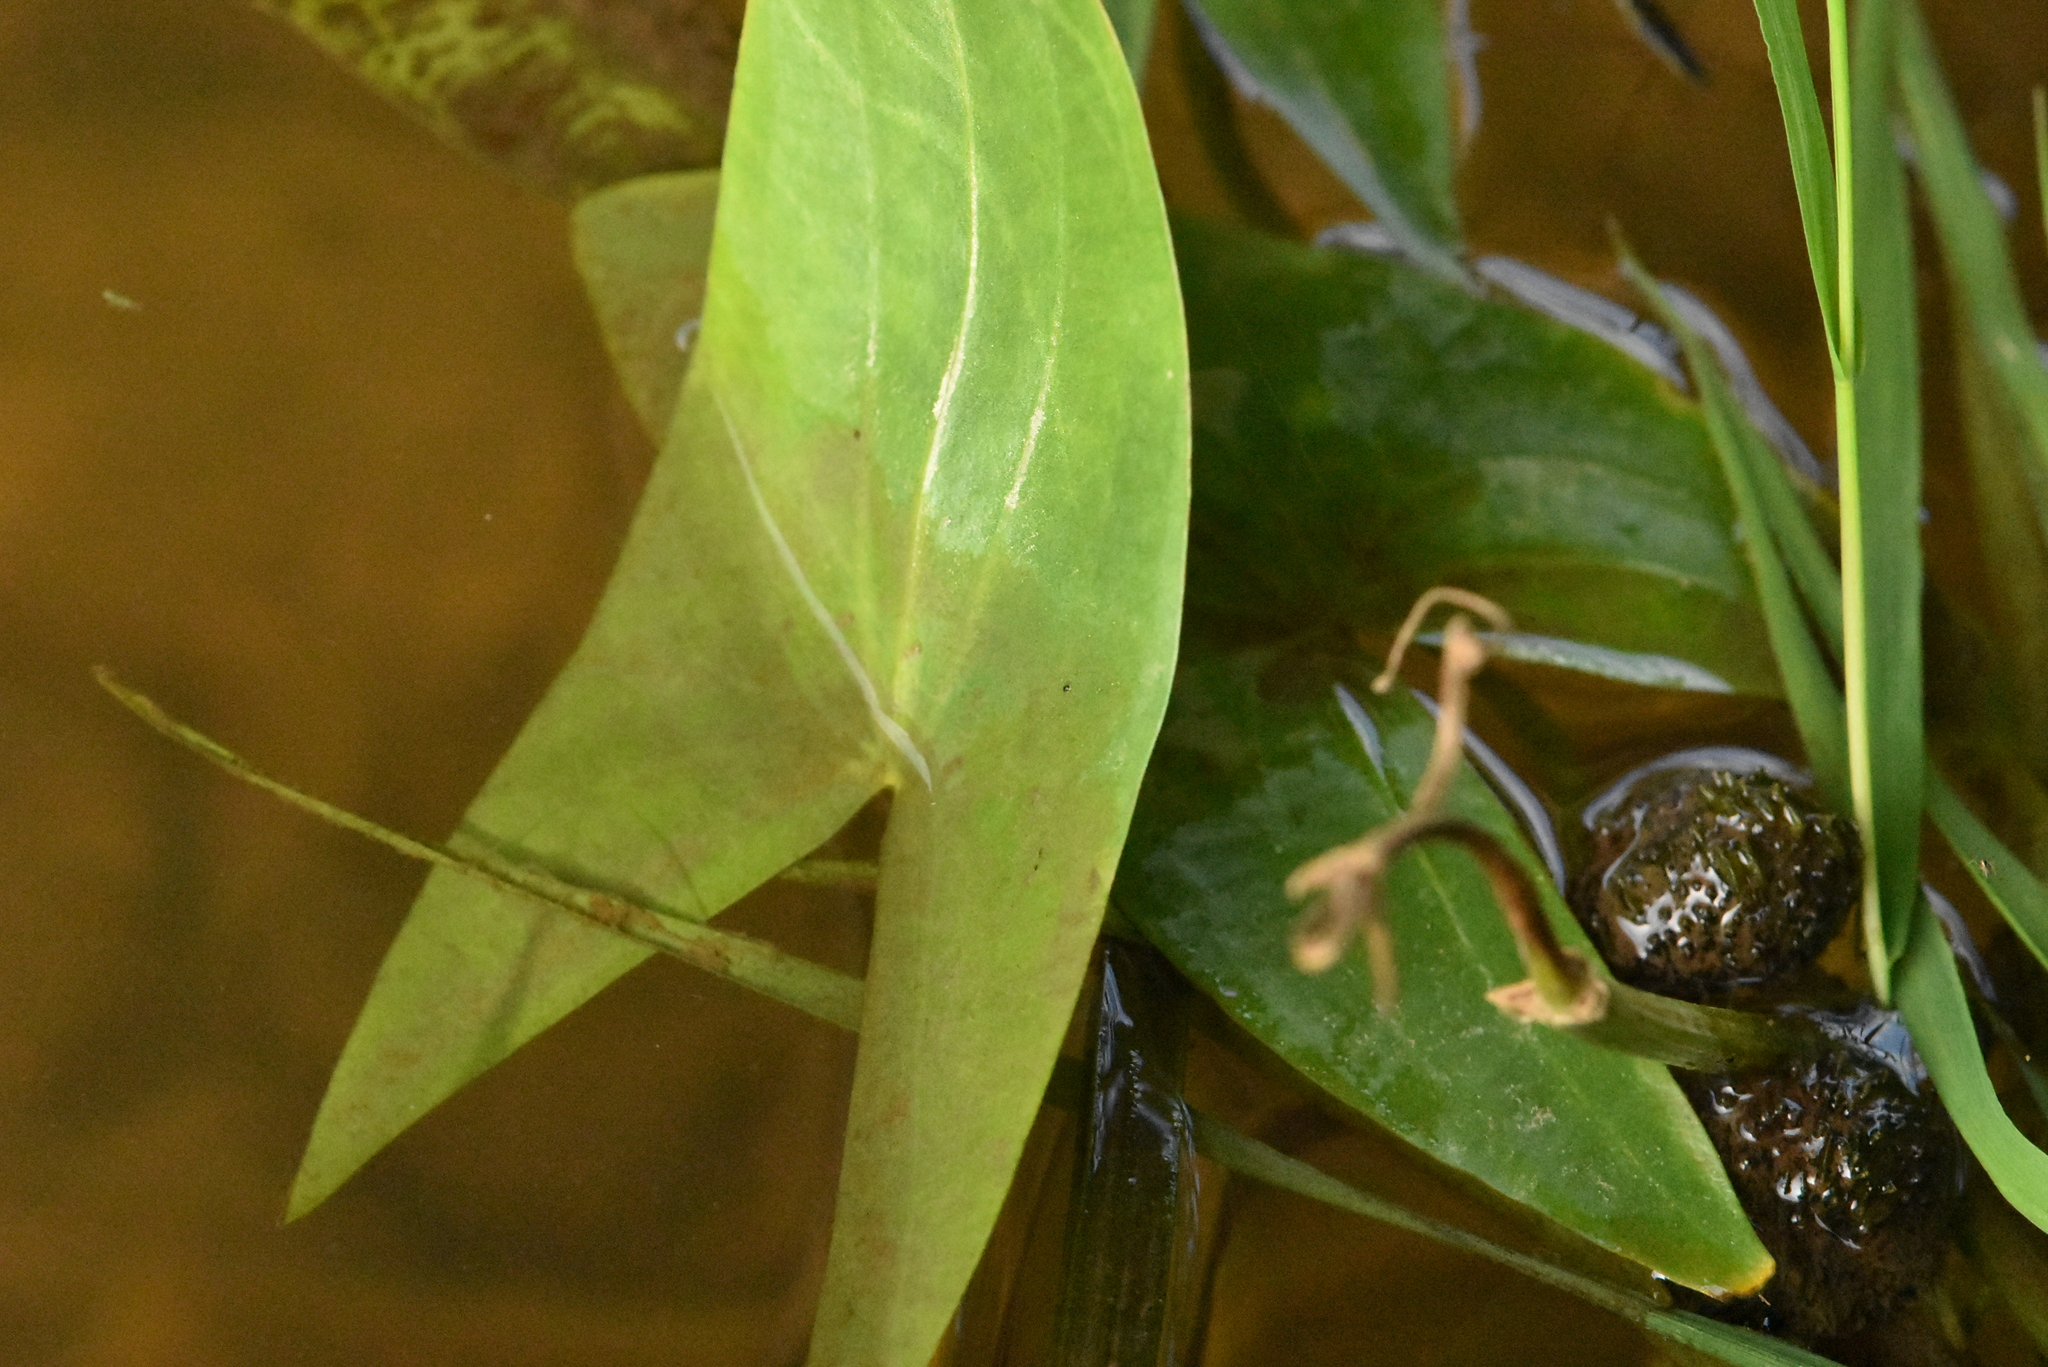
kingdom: Plantae
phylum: Tracheophyta
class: Liliopsida
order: Alismatales
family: Alismataceae
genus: Sagittaria
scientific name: Sagittaria sagittifolia
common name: Arrowhead
